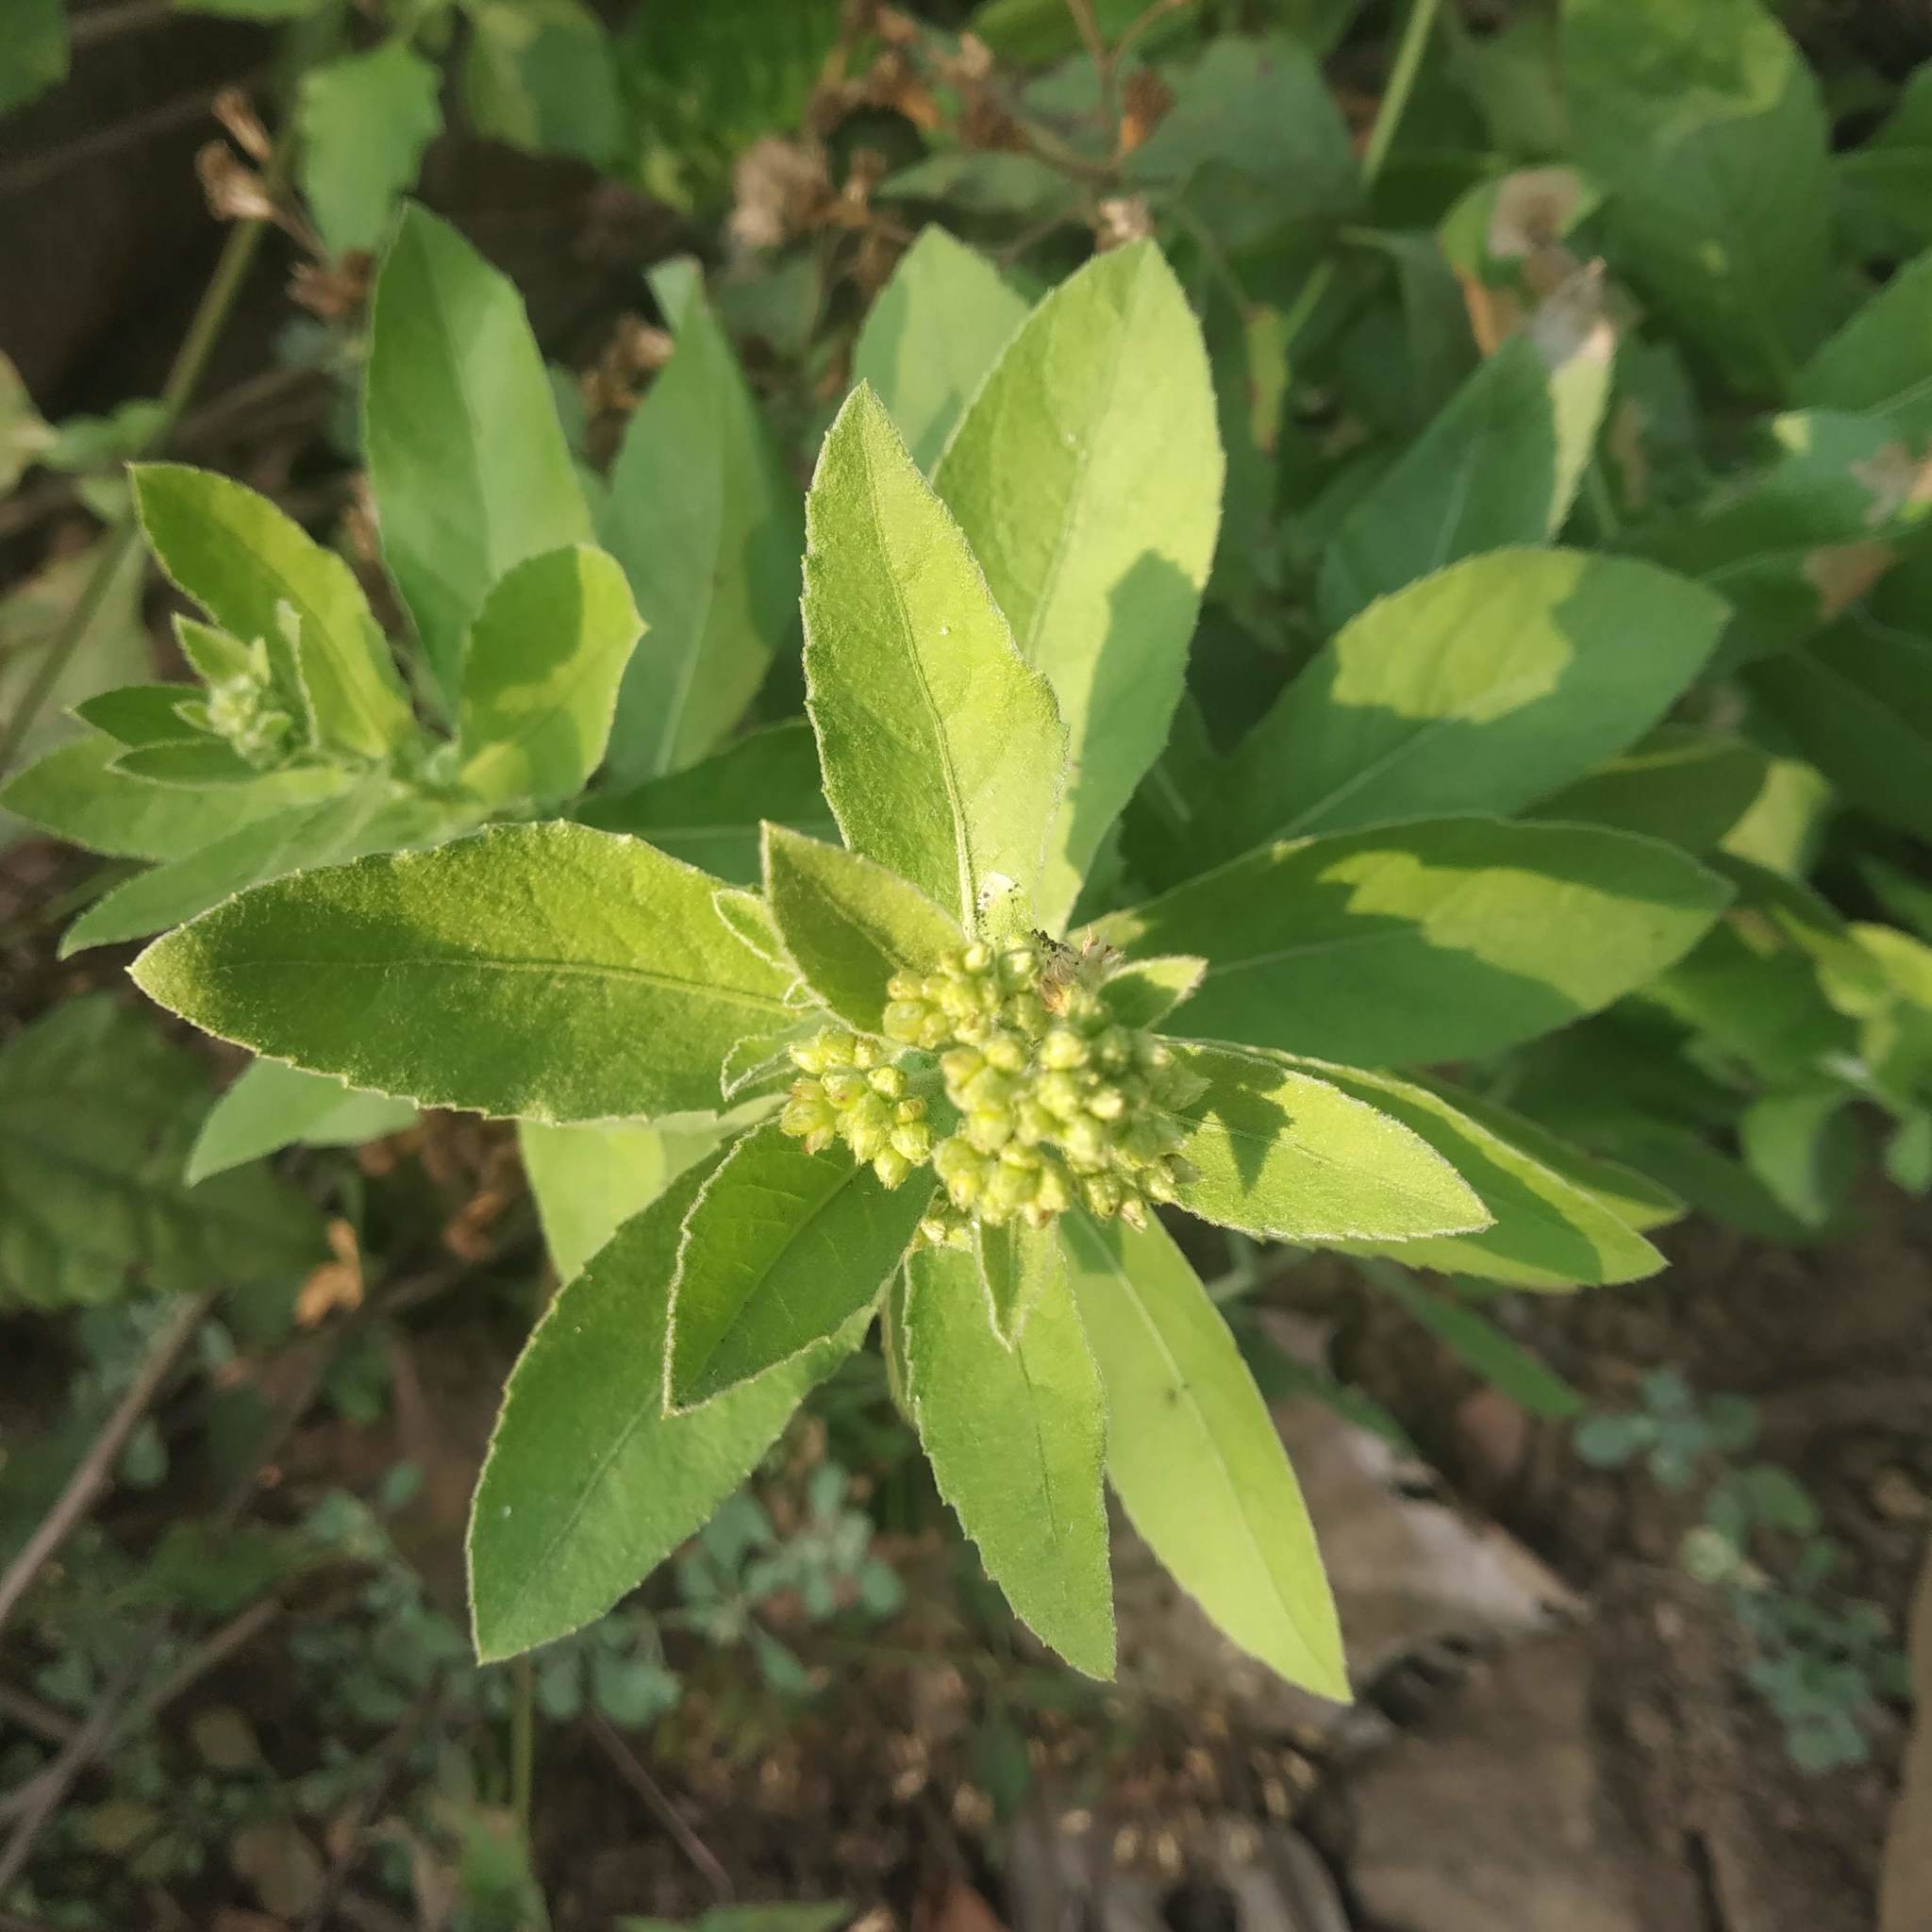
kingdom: Plantae
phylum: Tracheophyta
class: Magnoliopsida
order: Asterales
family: Asteraceae
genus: Pluchea
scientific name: Pluchea ovalis
